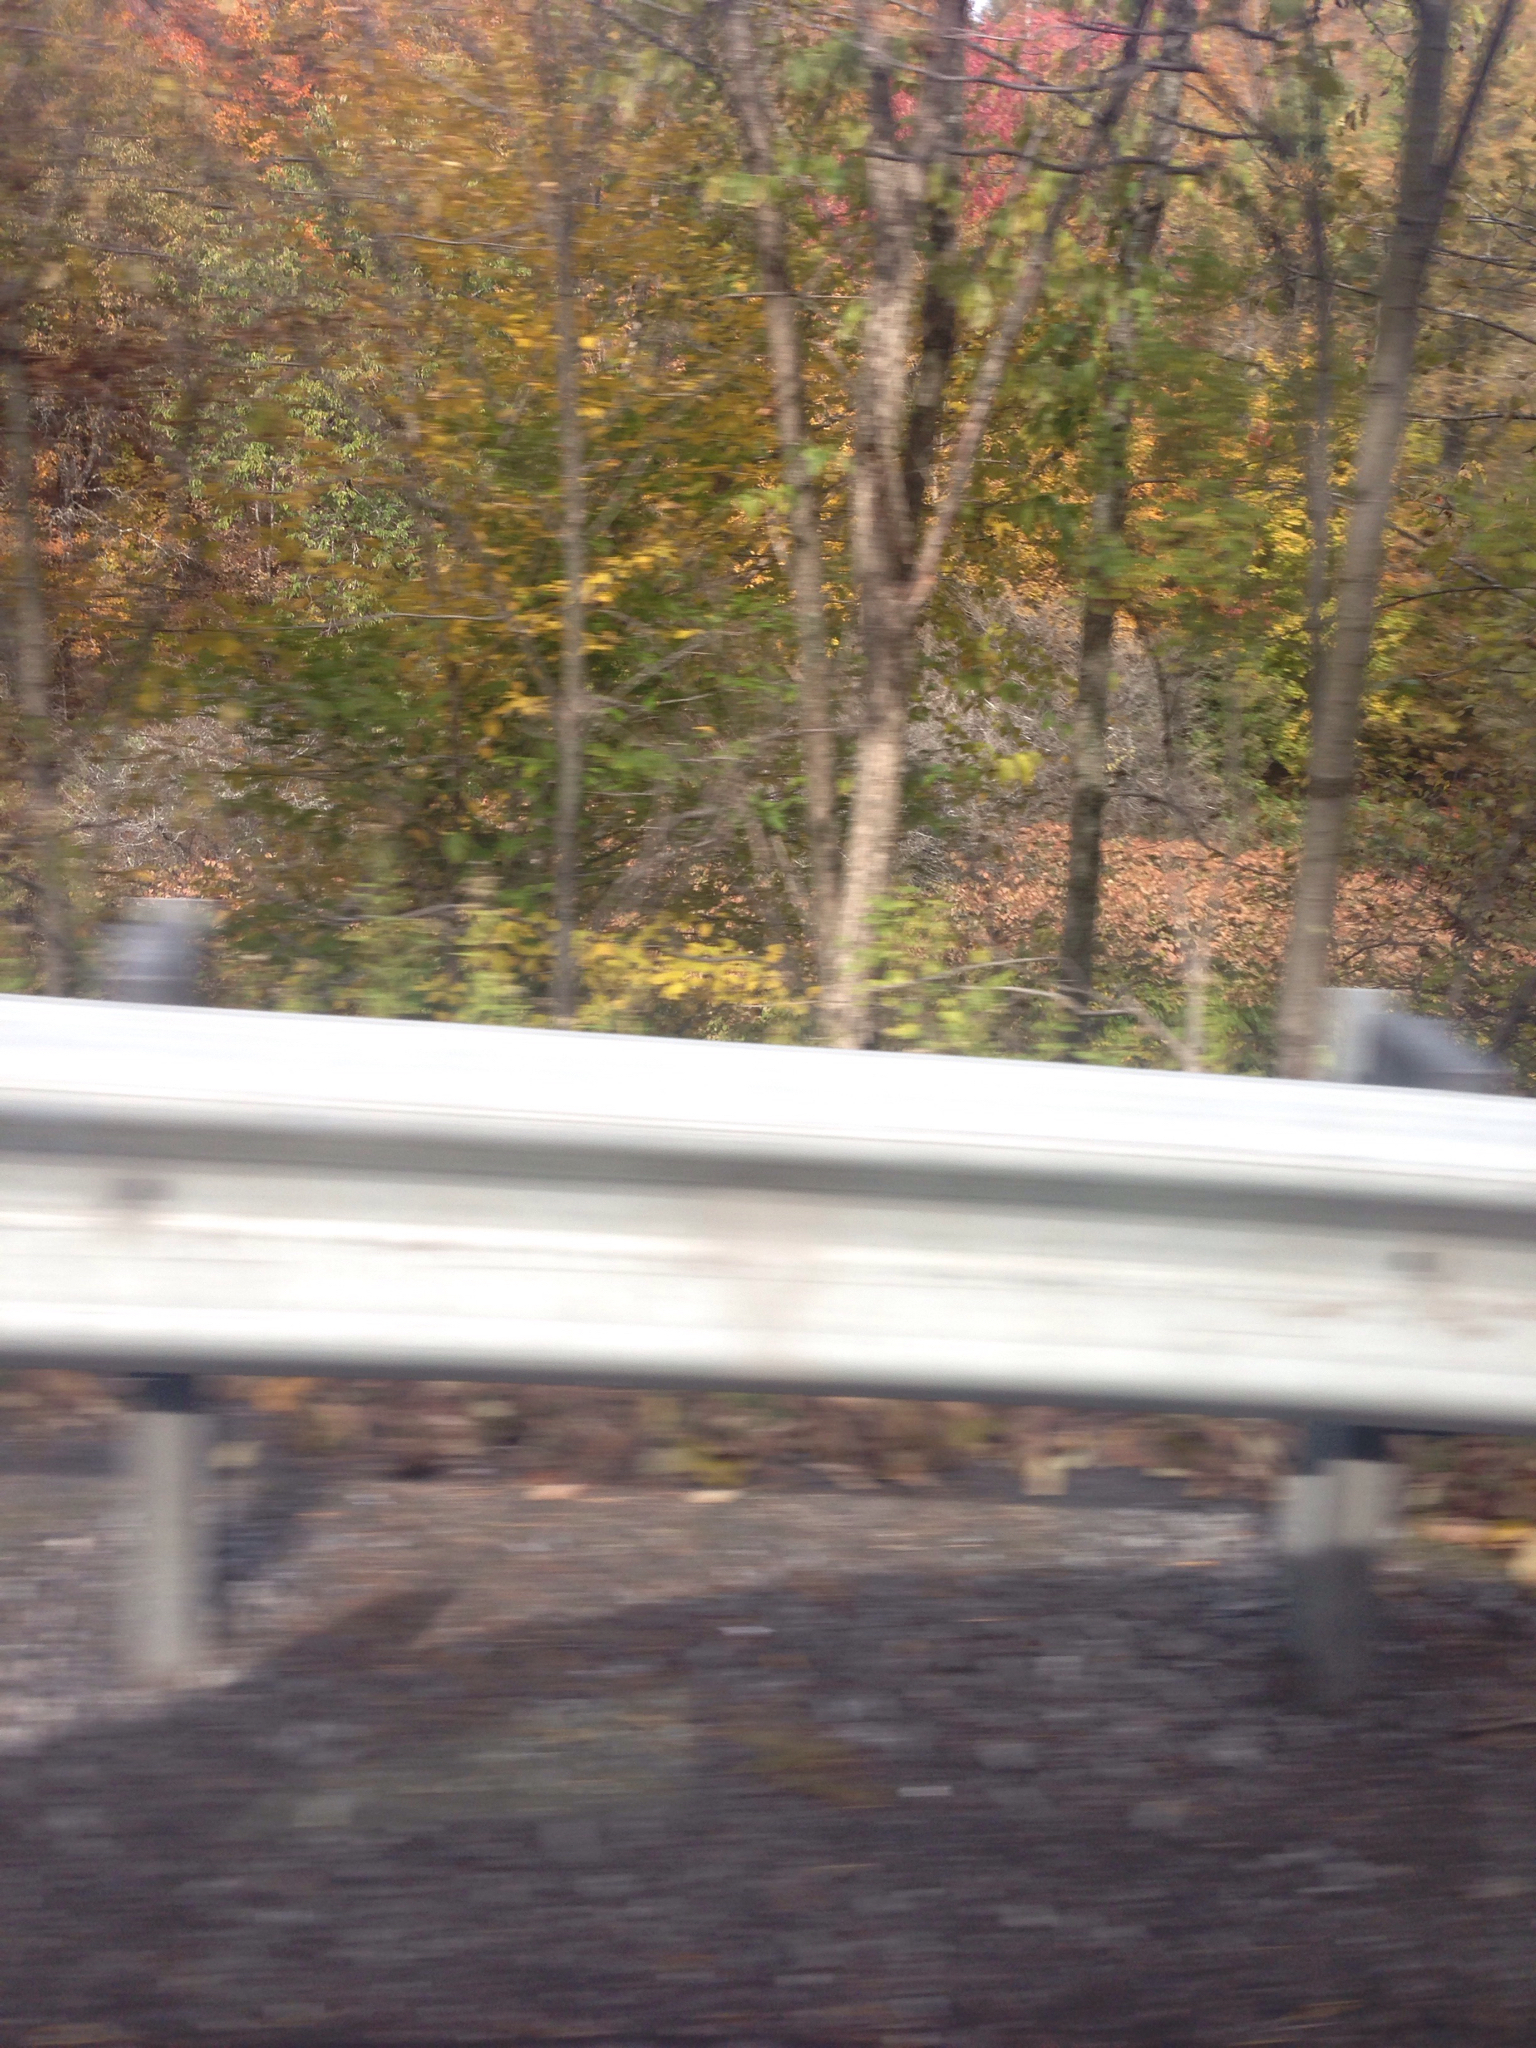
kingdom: Plantae
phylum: Tracheophyta
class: Magnoliopsida
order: Caryophyllales
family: Polygonaceae
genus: Reynoutria
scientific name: Reynoutria japonica
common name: Japanese knotweed
